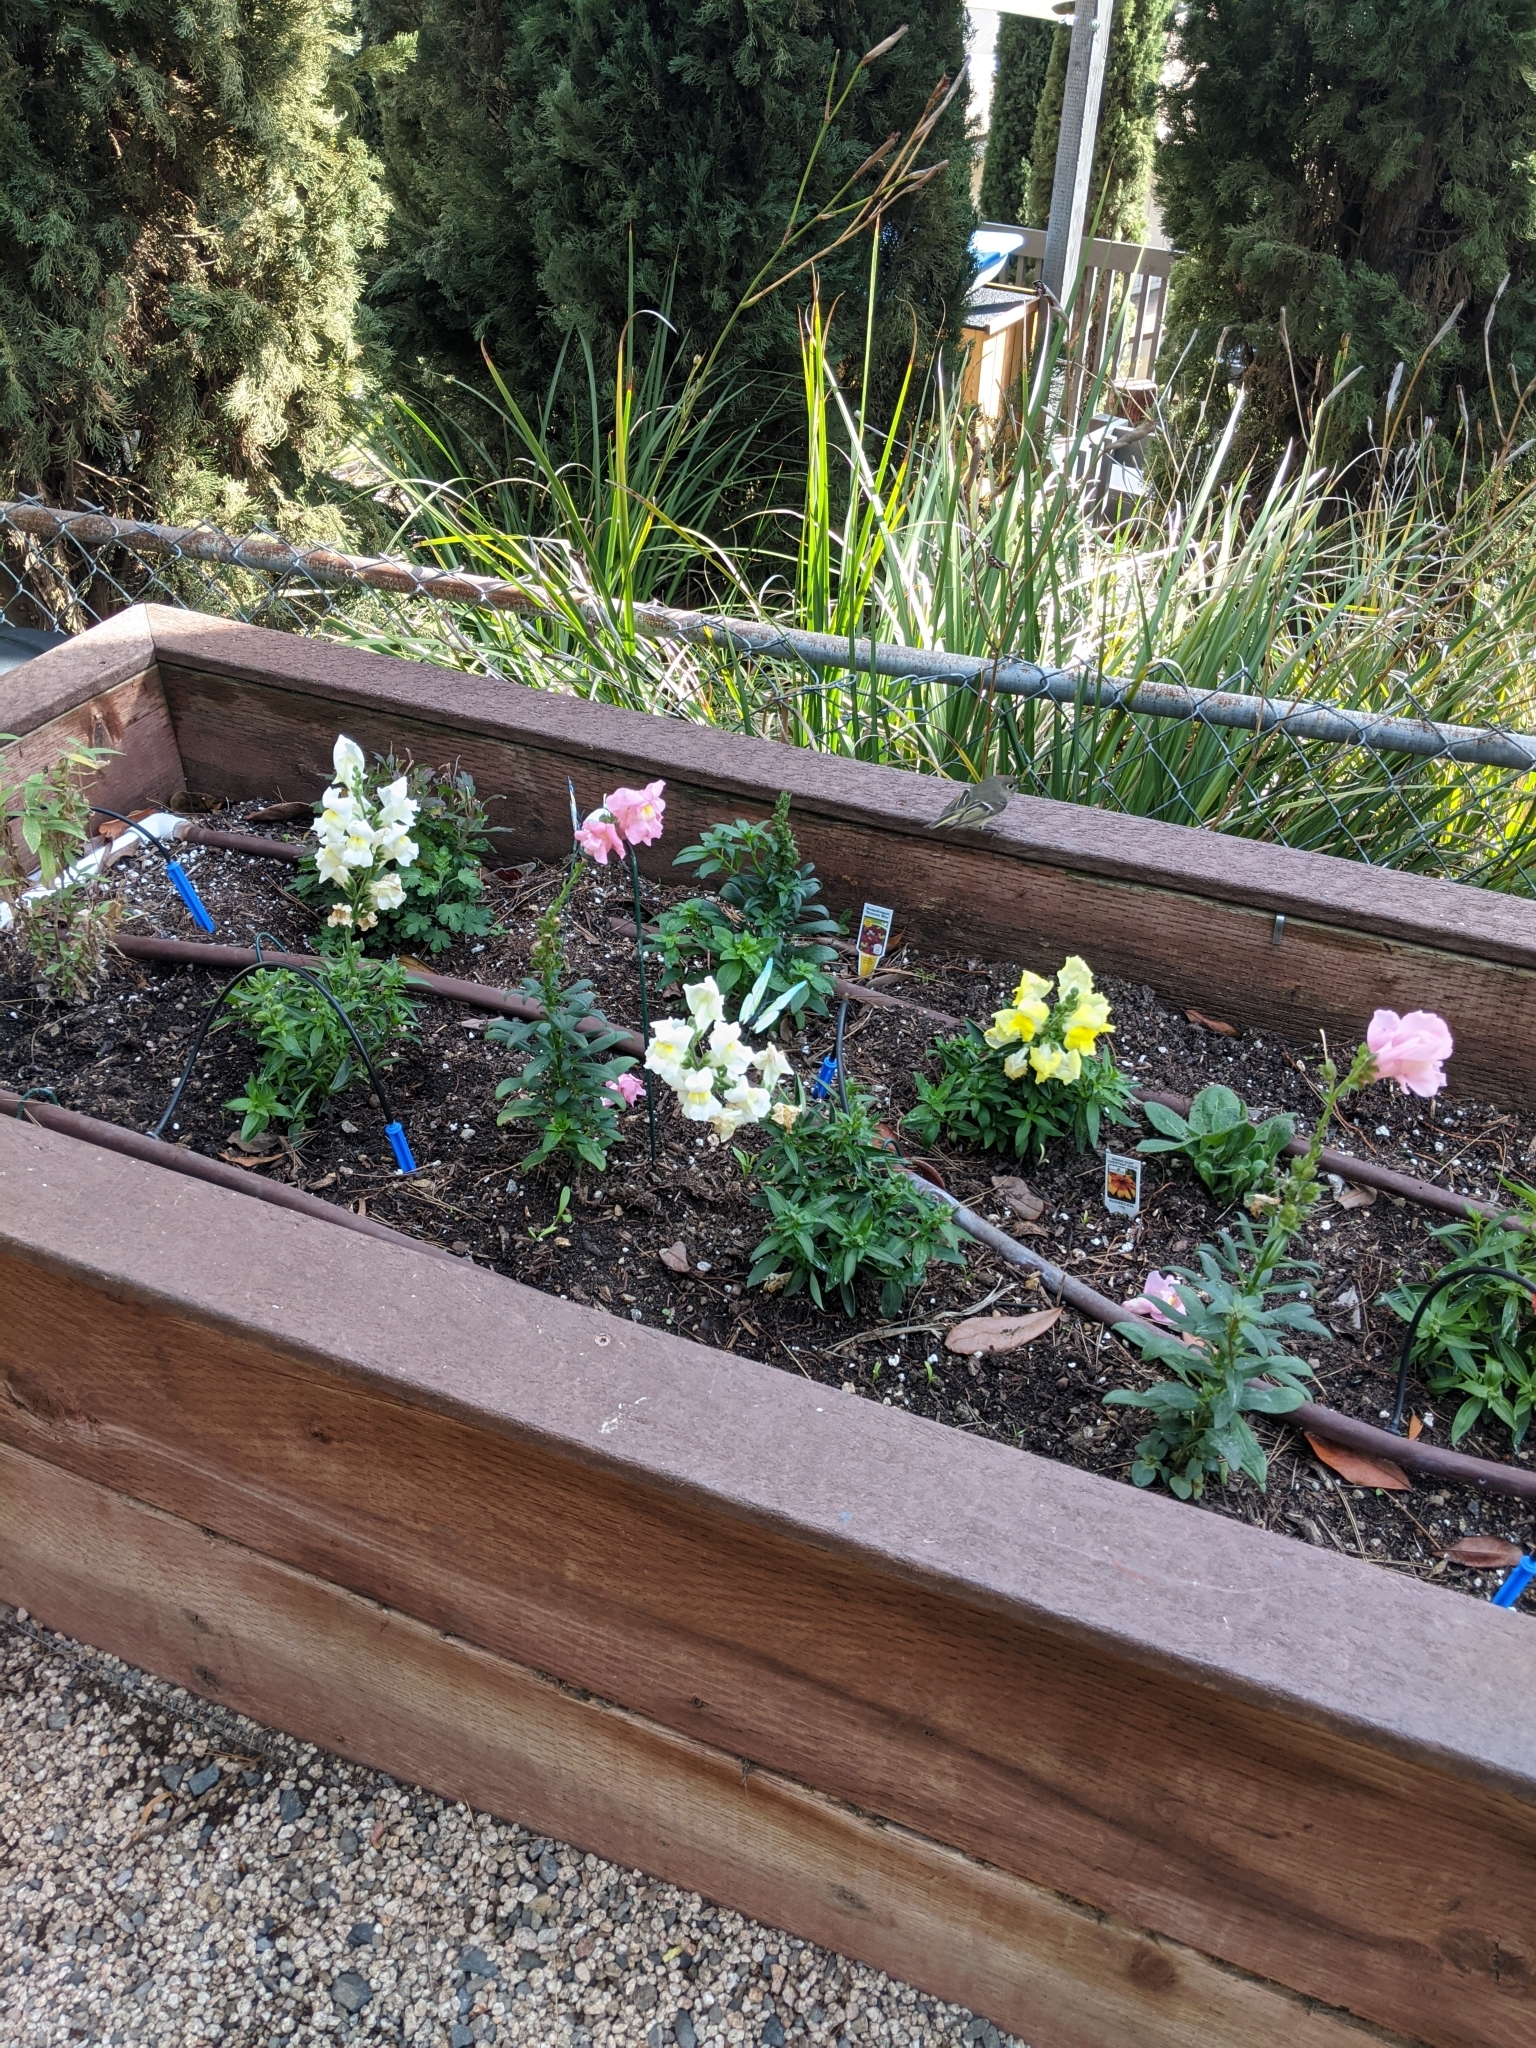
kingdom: Animalia
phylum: Chordata
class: Aves
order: Passeriformes
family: Regulidae
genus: Regulus
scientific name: Regulus calendula
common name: Ruby-crowned kinglet
